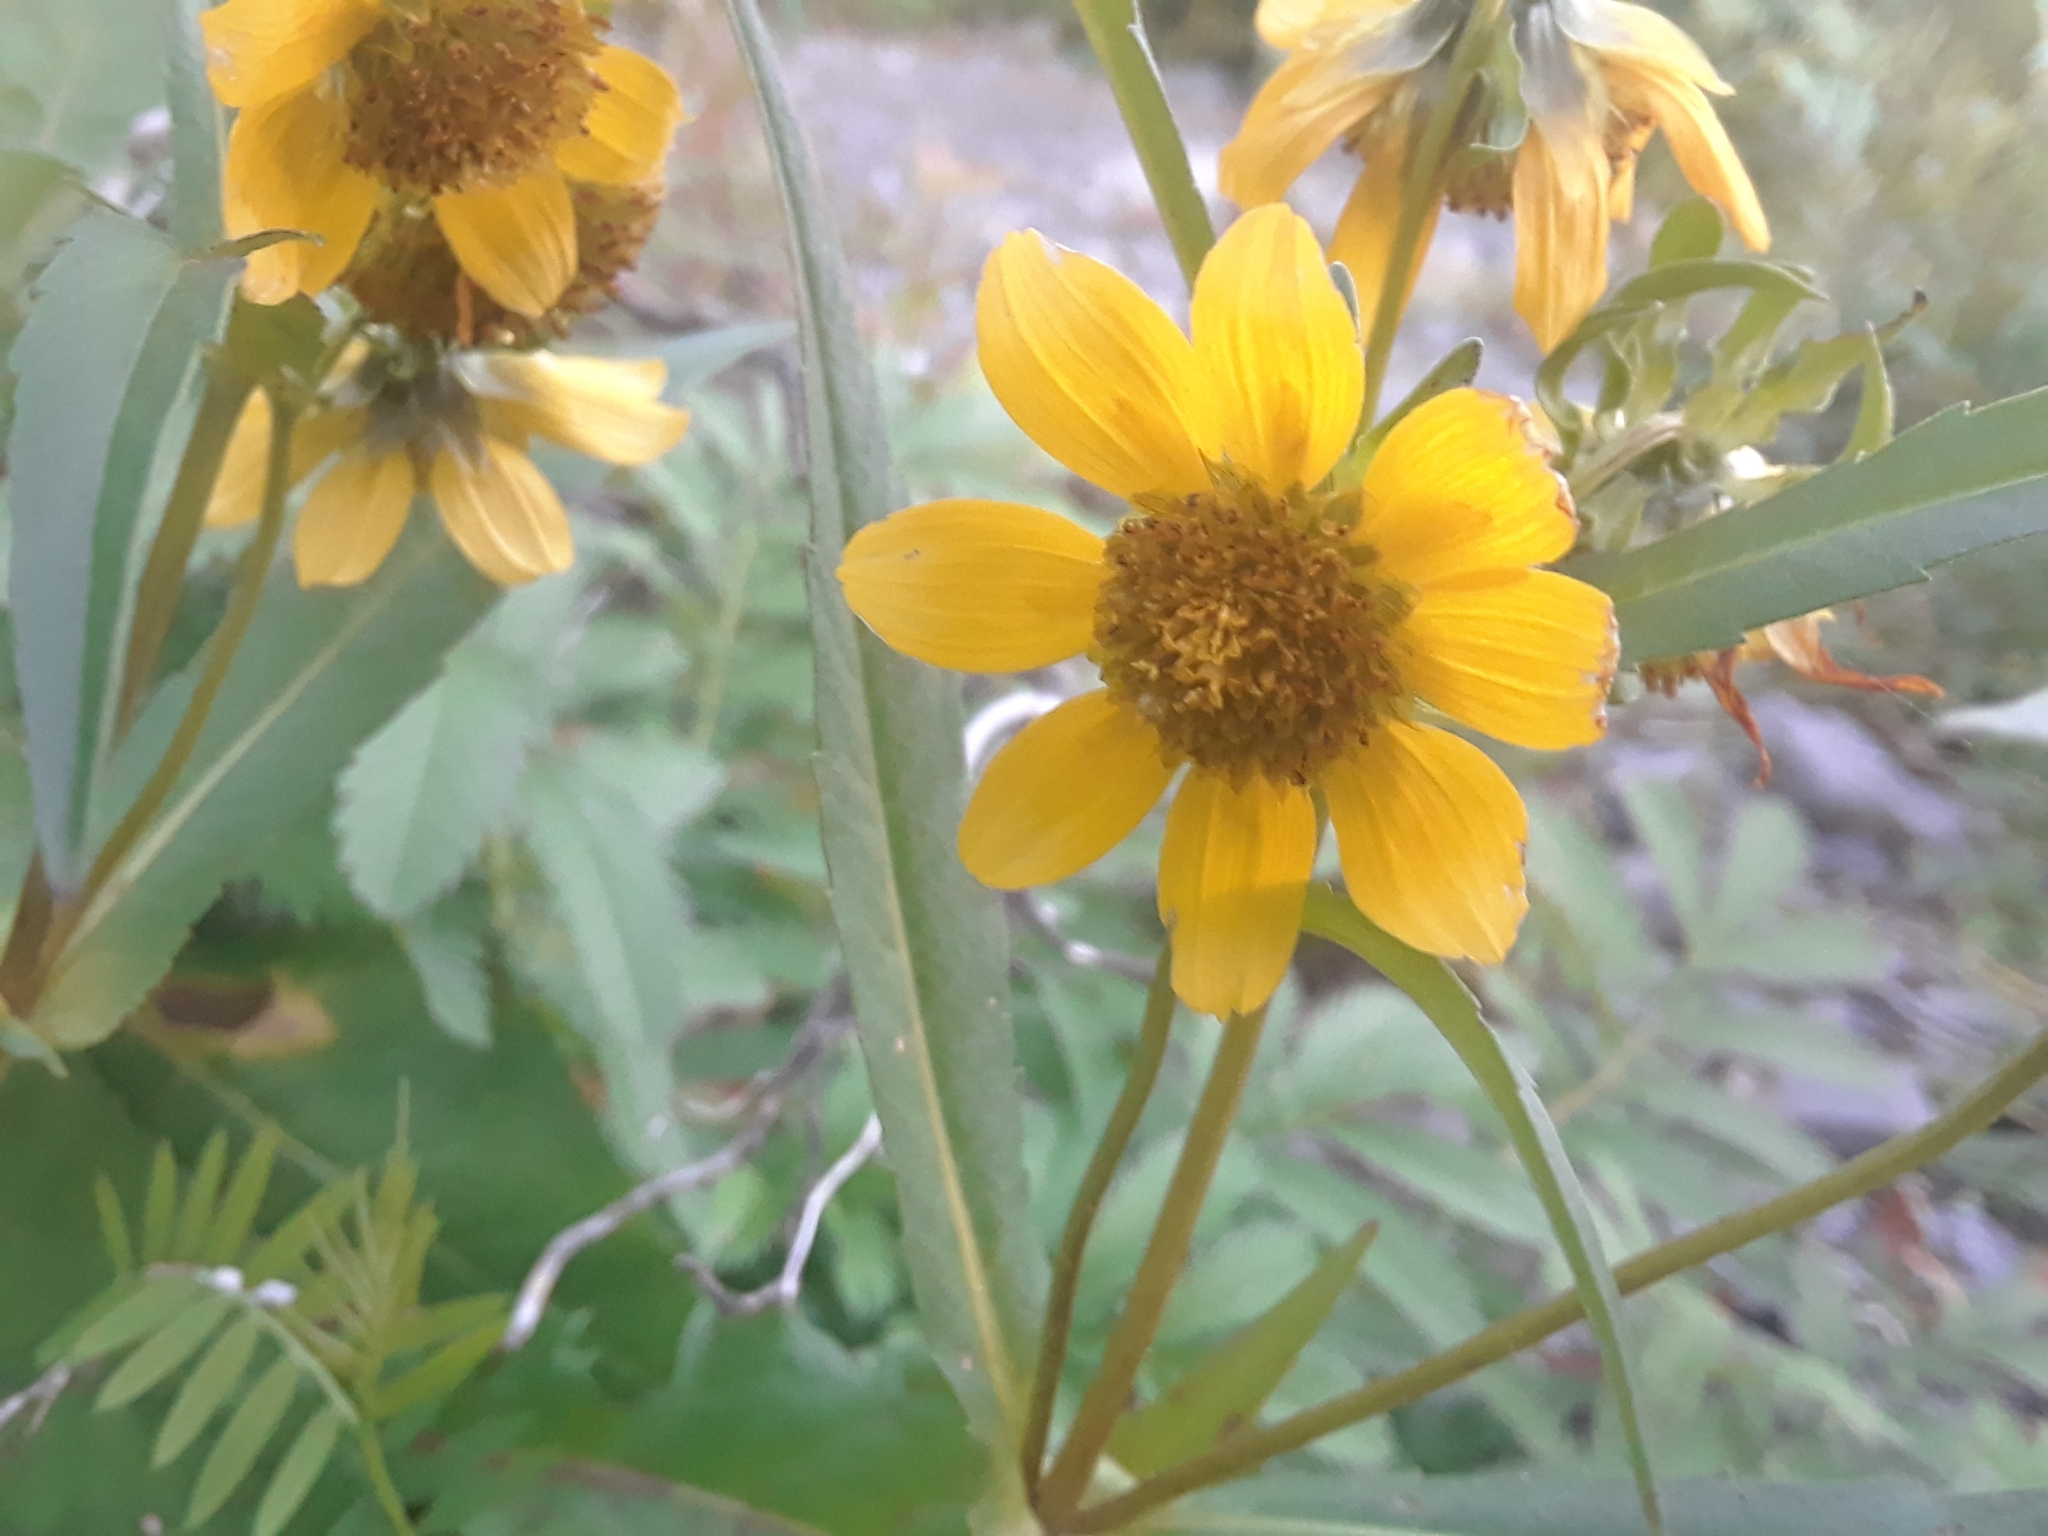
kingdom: Plantae
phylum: Tracheophyta
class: Magnoliopsida
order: Asterales
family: Asteraceae
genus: Bidens
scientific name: Bidens cernua
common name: Nodding bur-marigold
